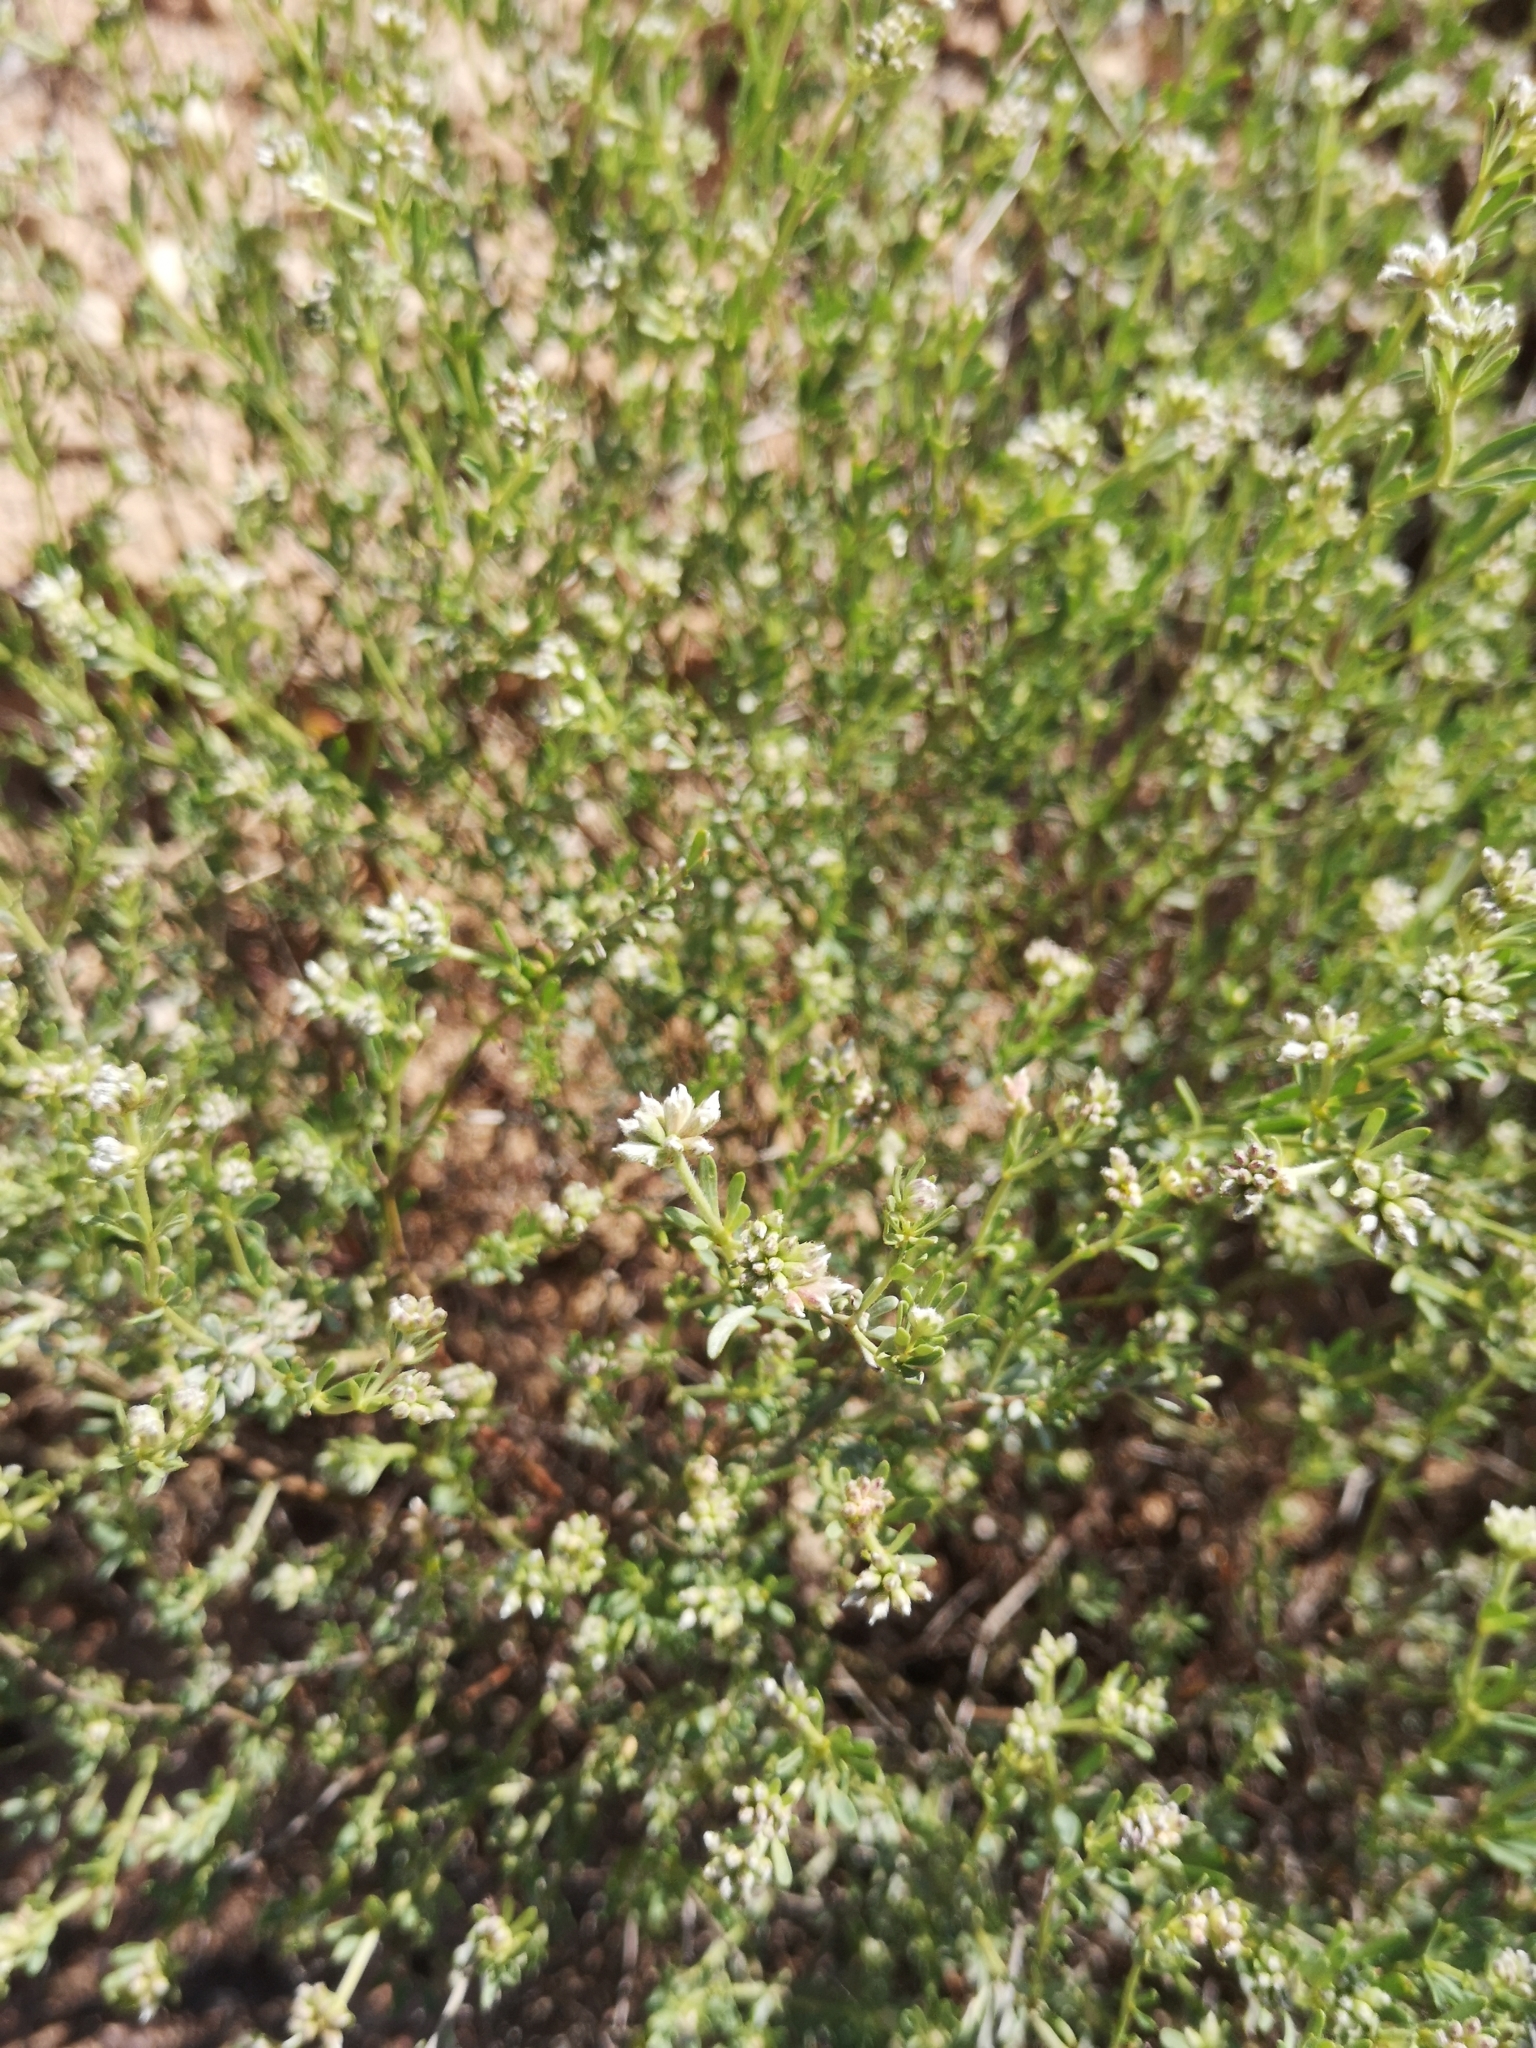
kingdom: Plantae
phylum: Tracheophyta
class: Magnoliopsida
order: Fabales
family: Fabaceae
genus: Lotus
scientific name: Lotus dorycnium
